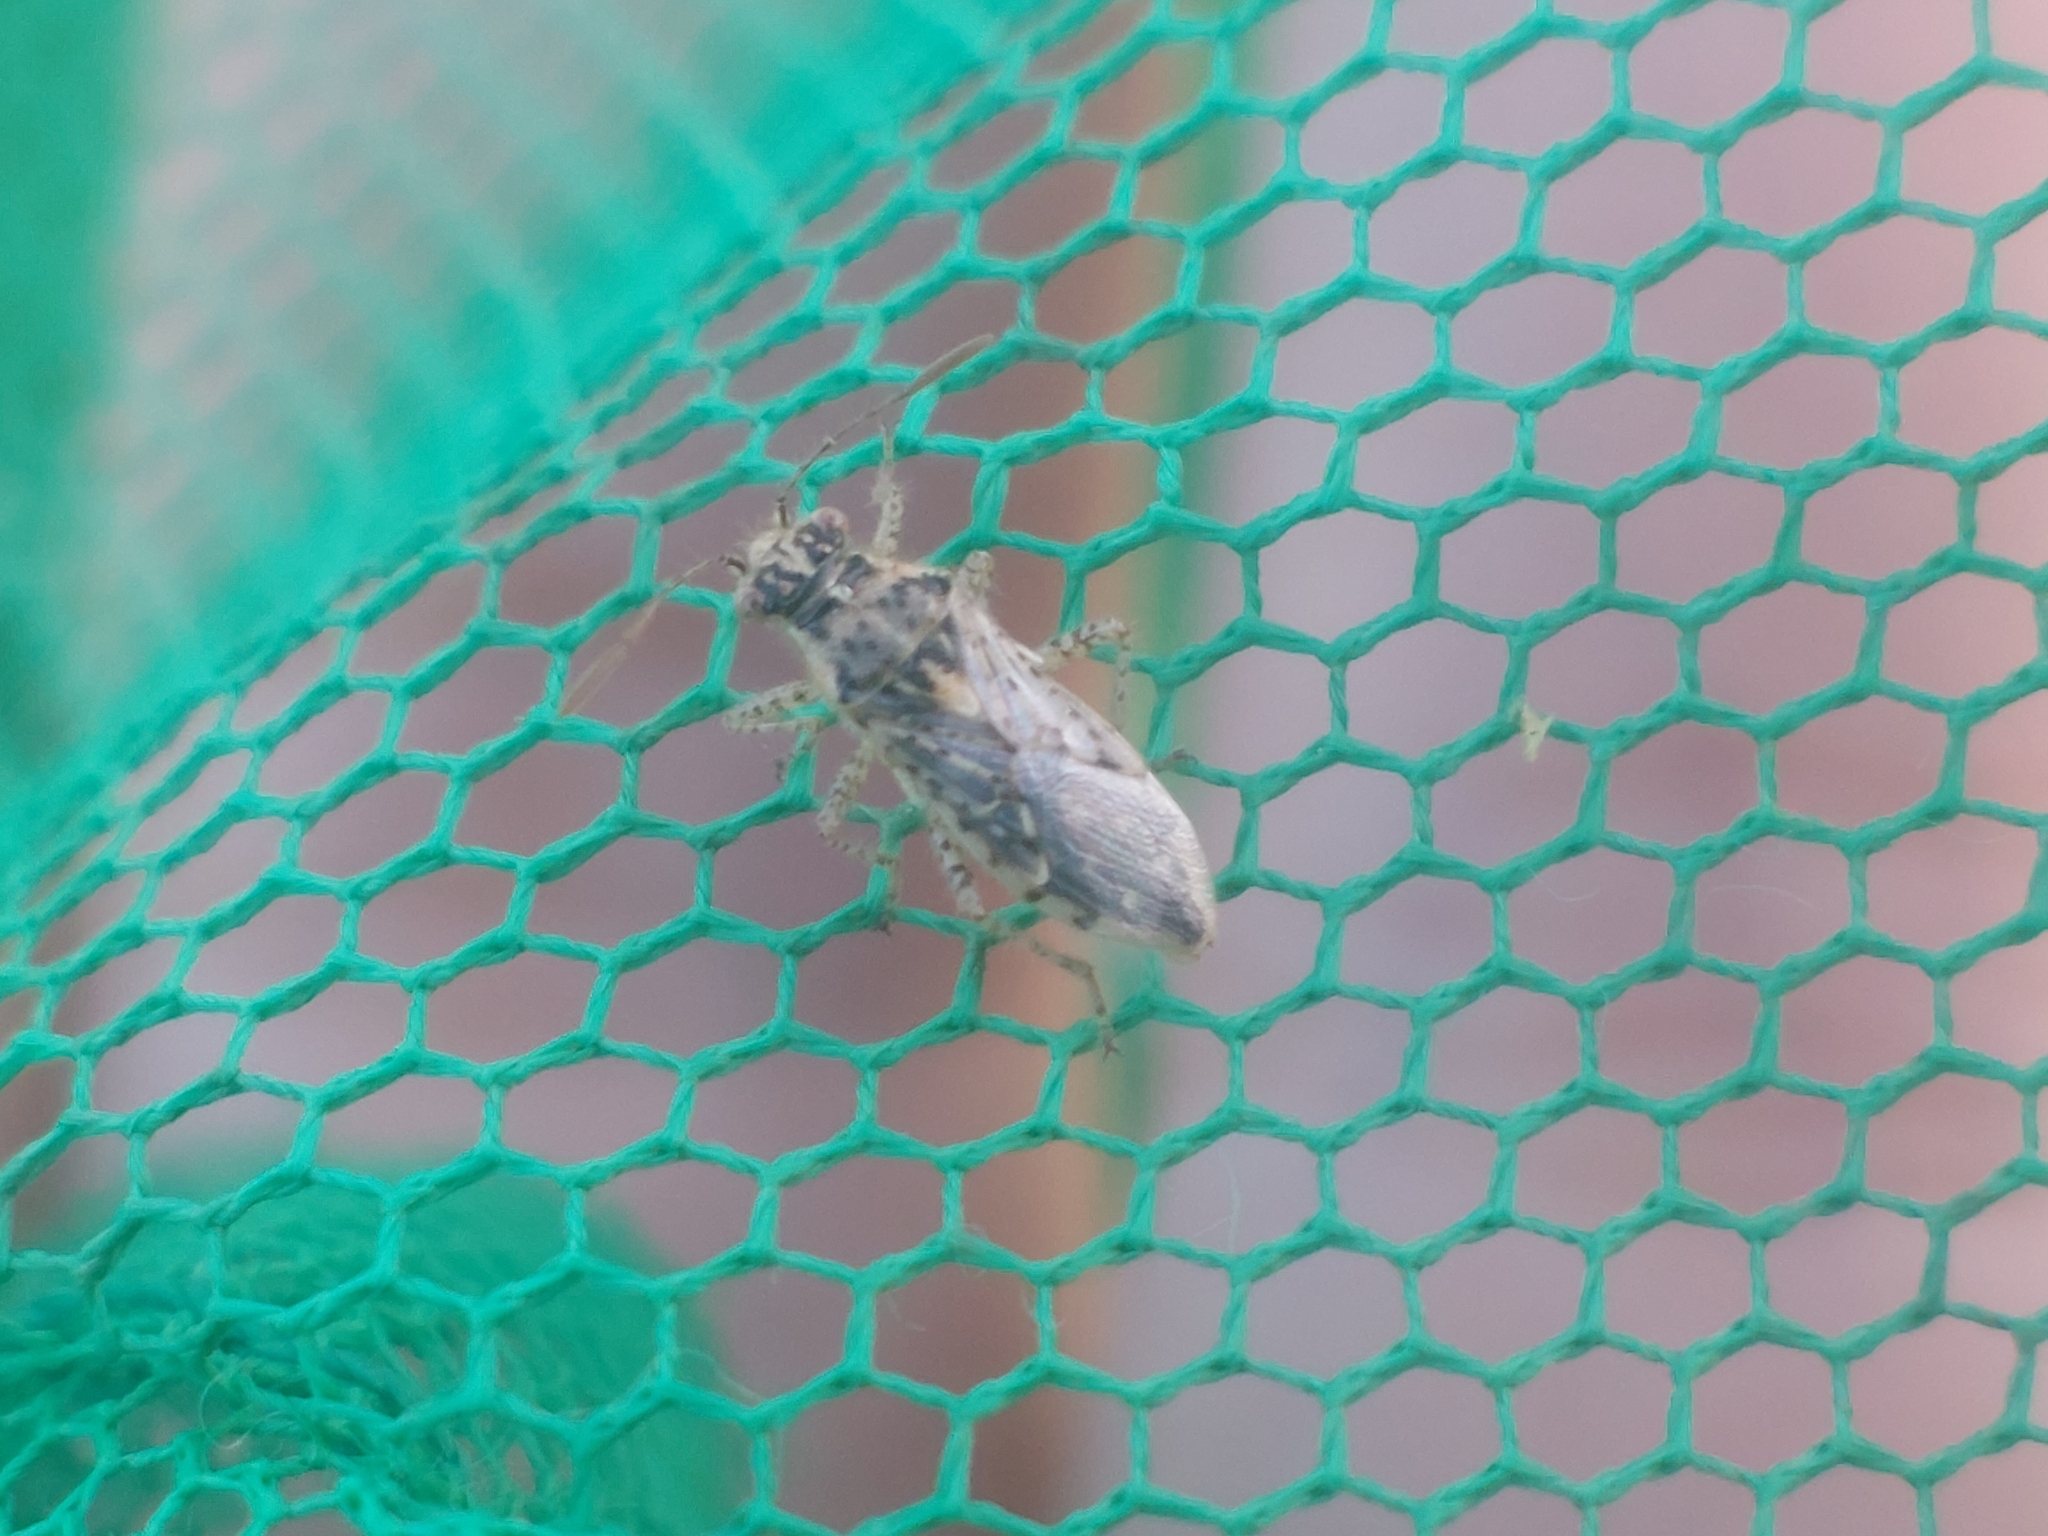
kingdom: Animalia
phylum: Arthropoda
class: Insecta
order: Hemiptera
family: Rhopalidae
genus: Brachycarenus
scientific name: Brachycarenus tigrinus
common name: Scentless plant bug
